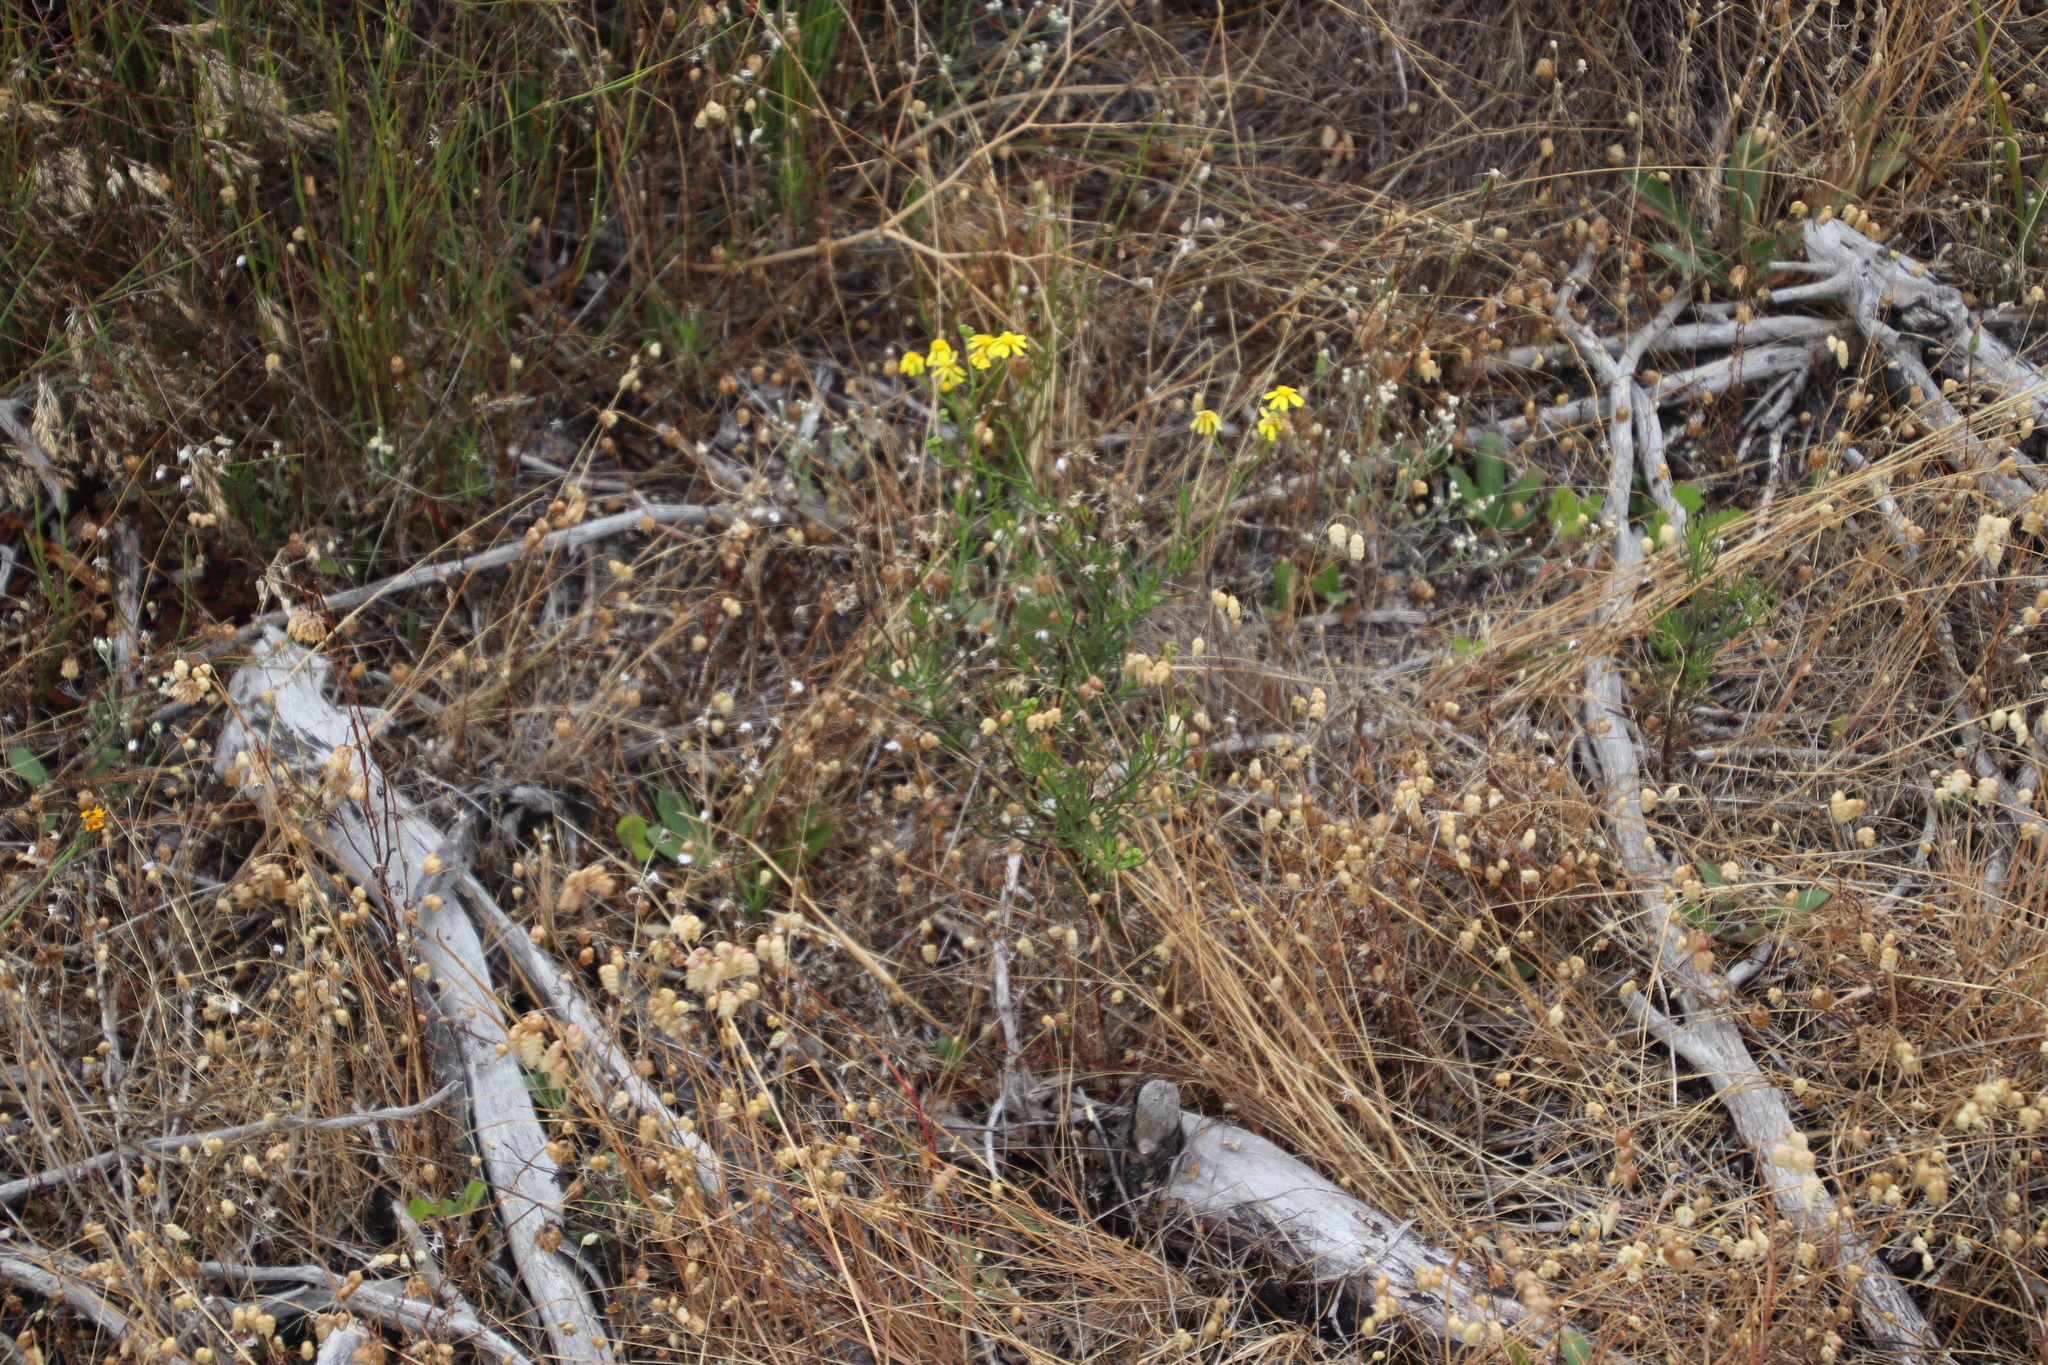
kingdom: Plantae
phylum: Tracheophyta
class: Magnoliopsida
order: Asterales
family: Asteraceae
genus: Senecio
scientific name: Senecio burchellii
